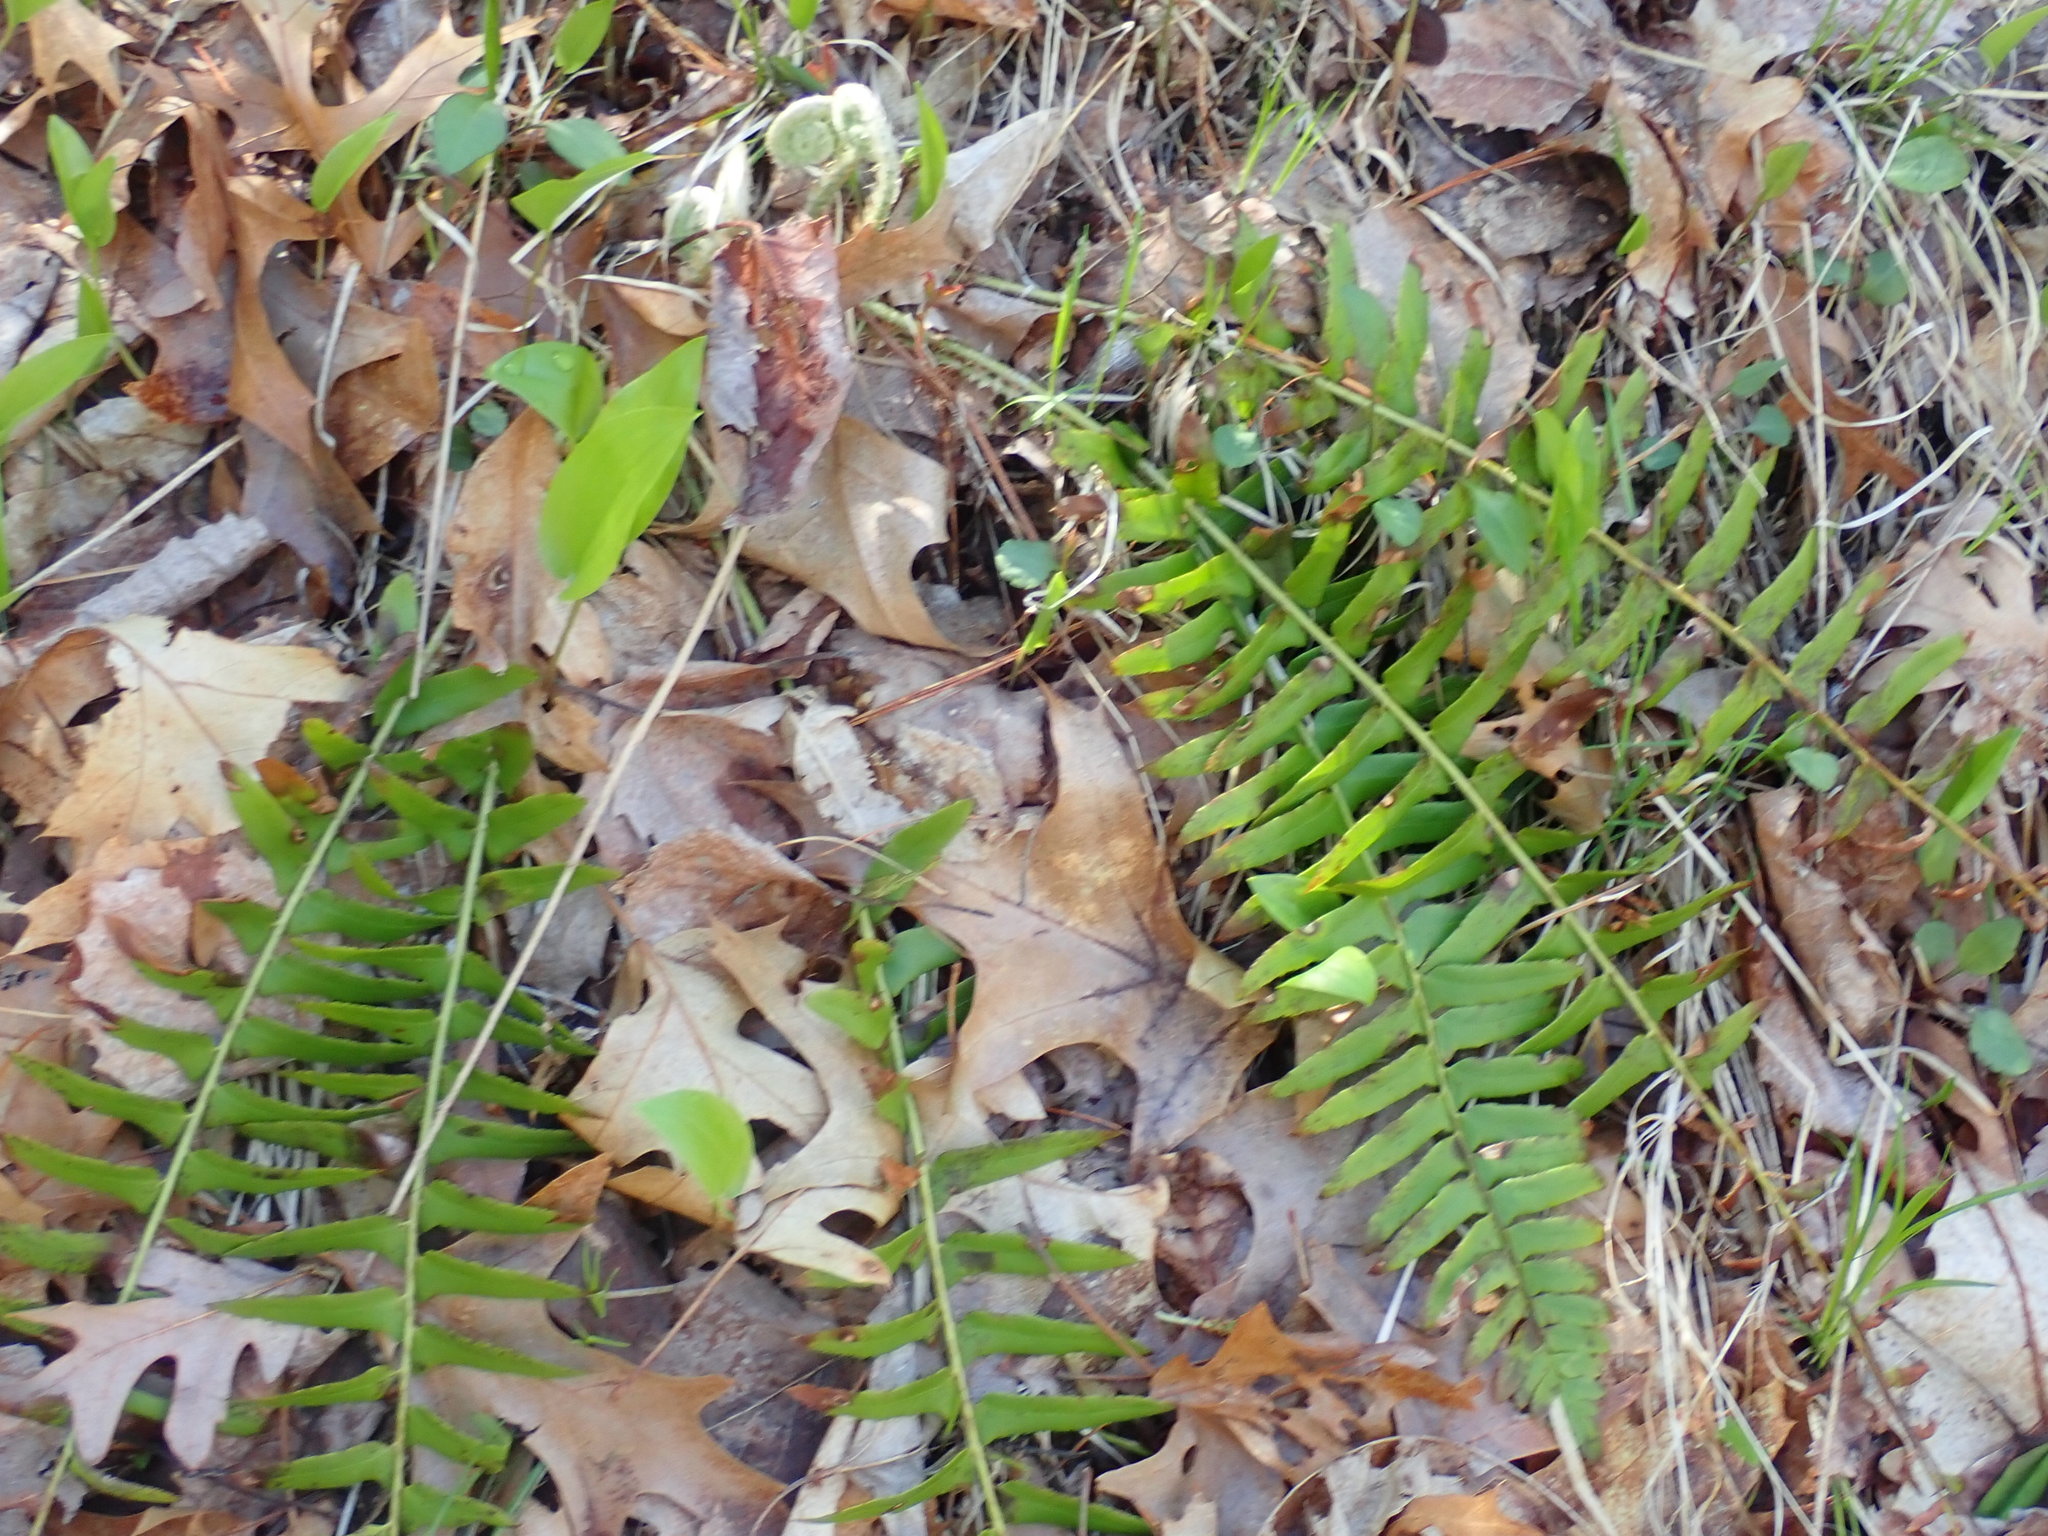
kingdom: Plantae
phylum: Tracheophyta
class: Polypodiopsida
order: Polypodiales
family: Dryopteridaceae
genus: Polystichum
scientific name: Polystichum acrostichoides
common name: Christmas fern
